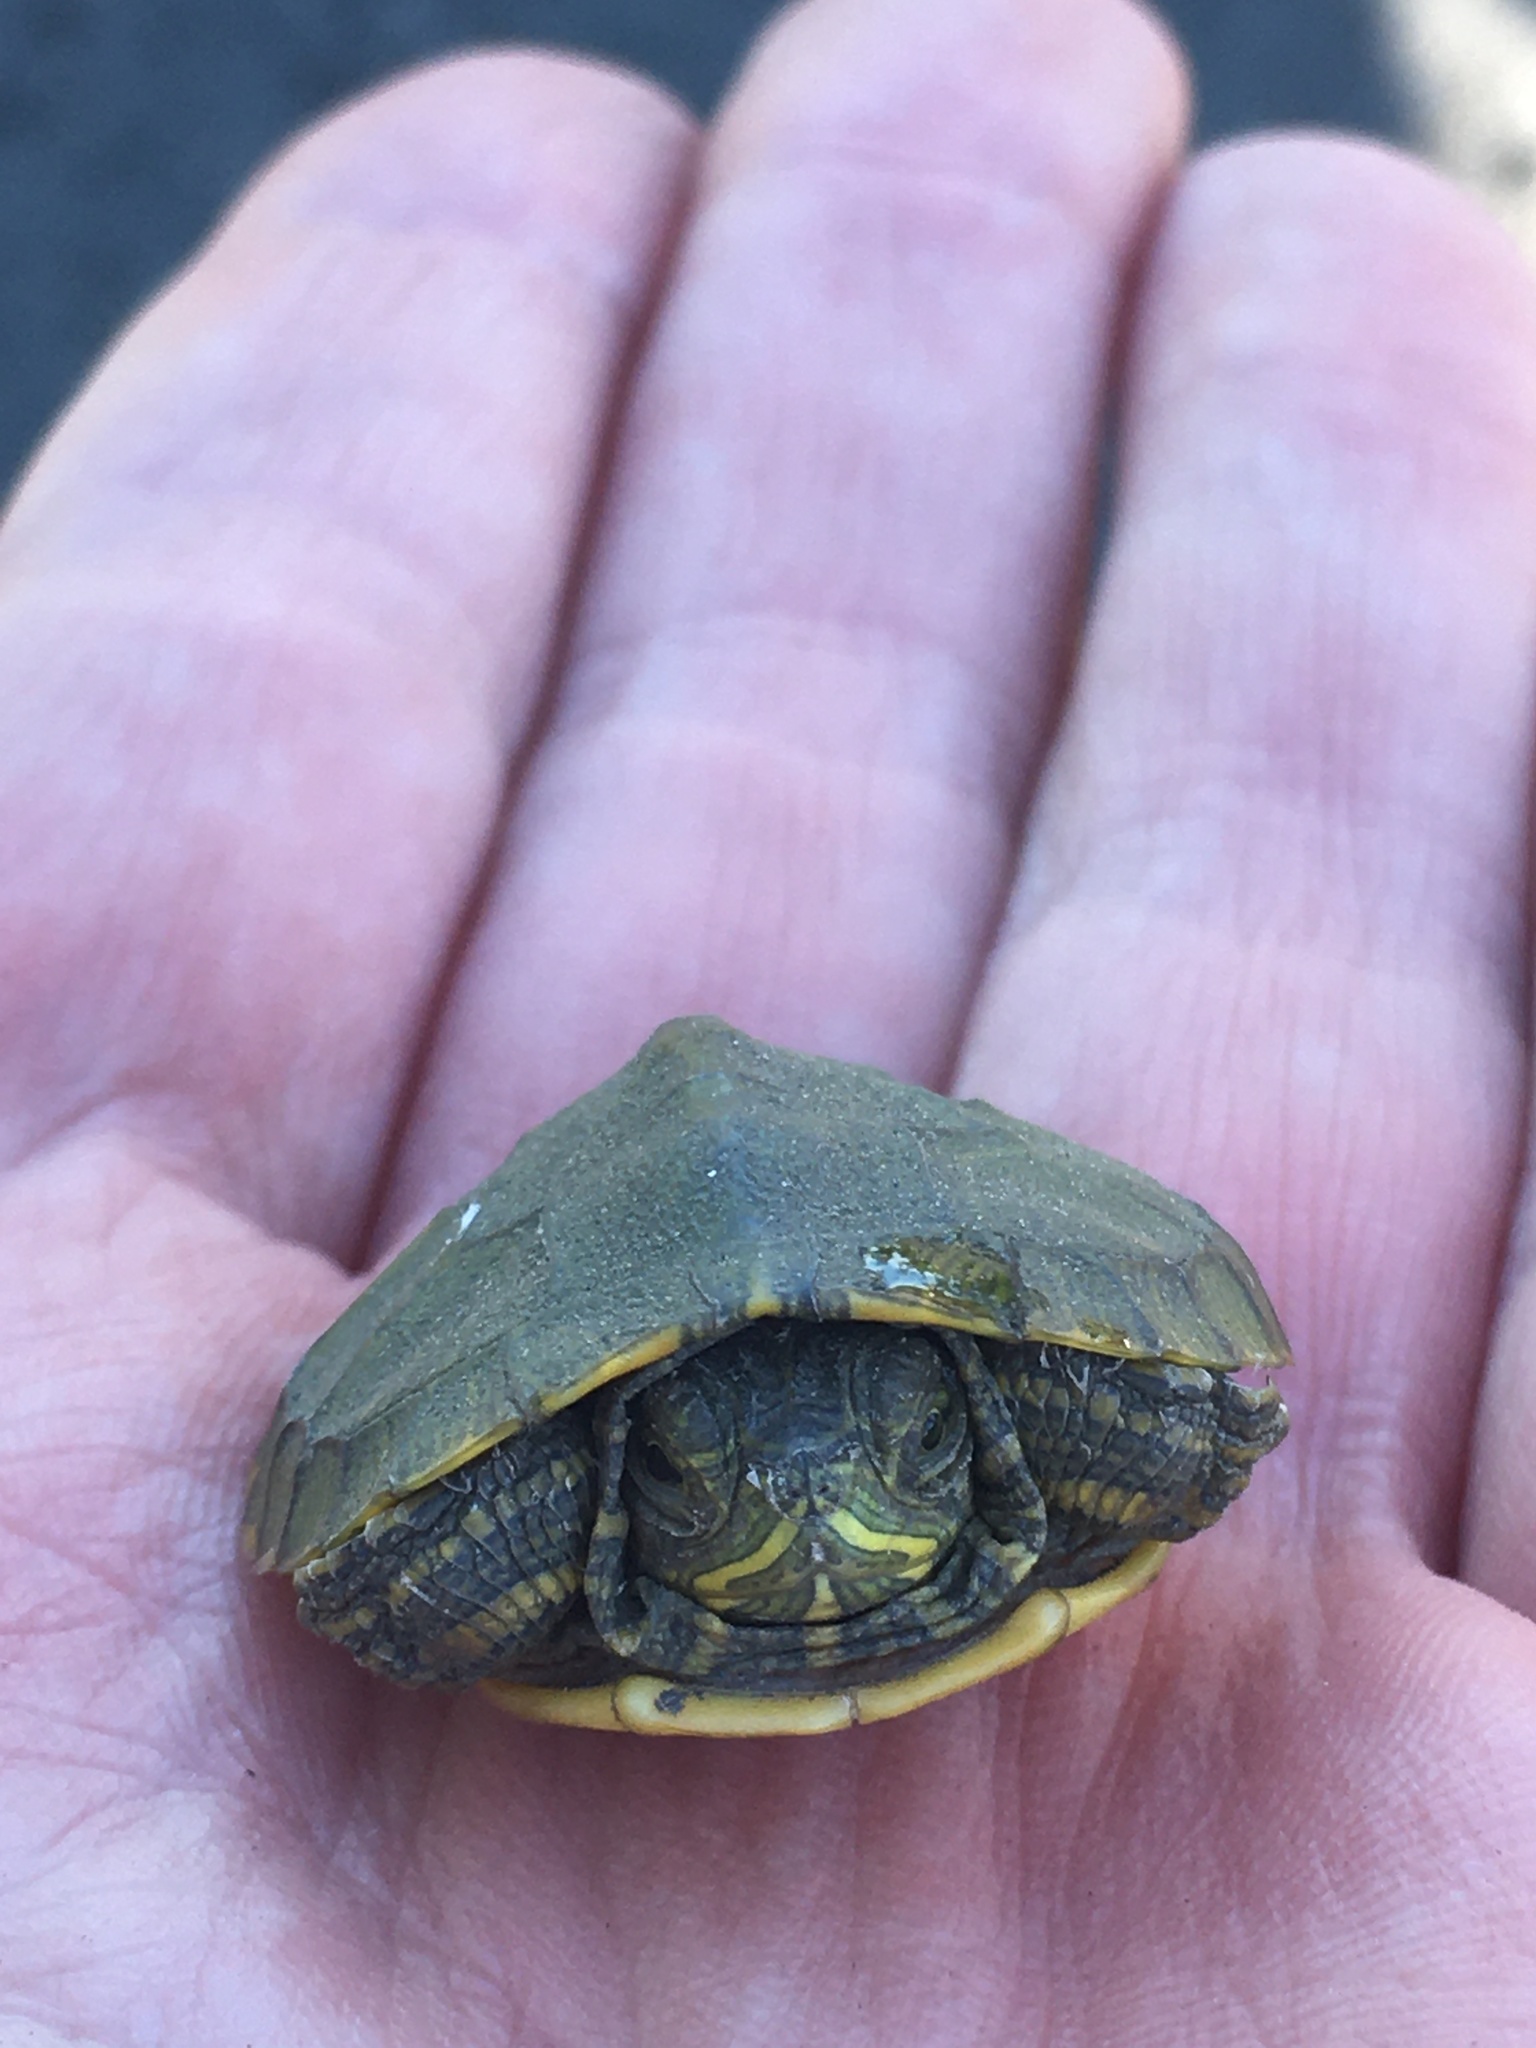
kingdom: Animalia
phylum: Chordata
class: Testudines
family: Emydidae
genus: Trachemys
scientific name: Trachemys scripta
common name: Slider
